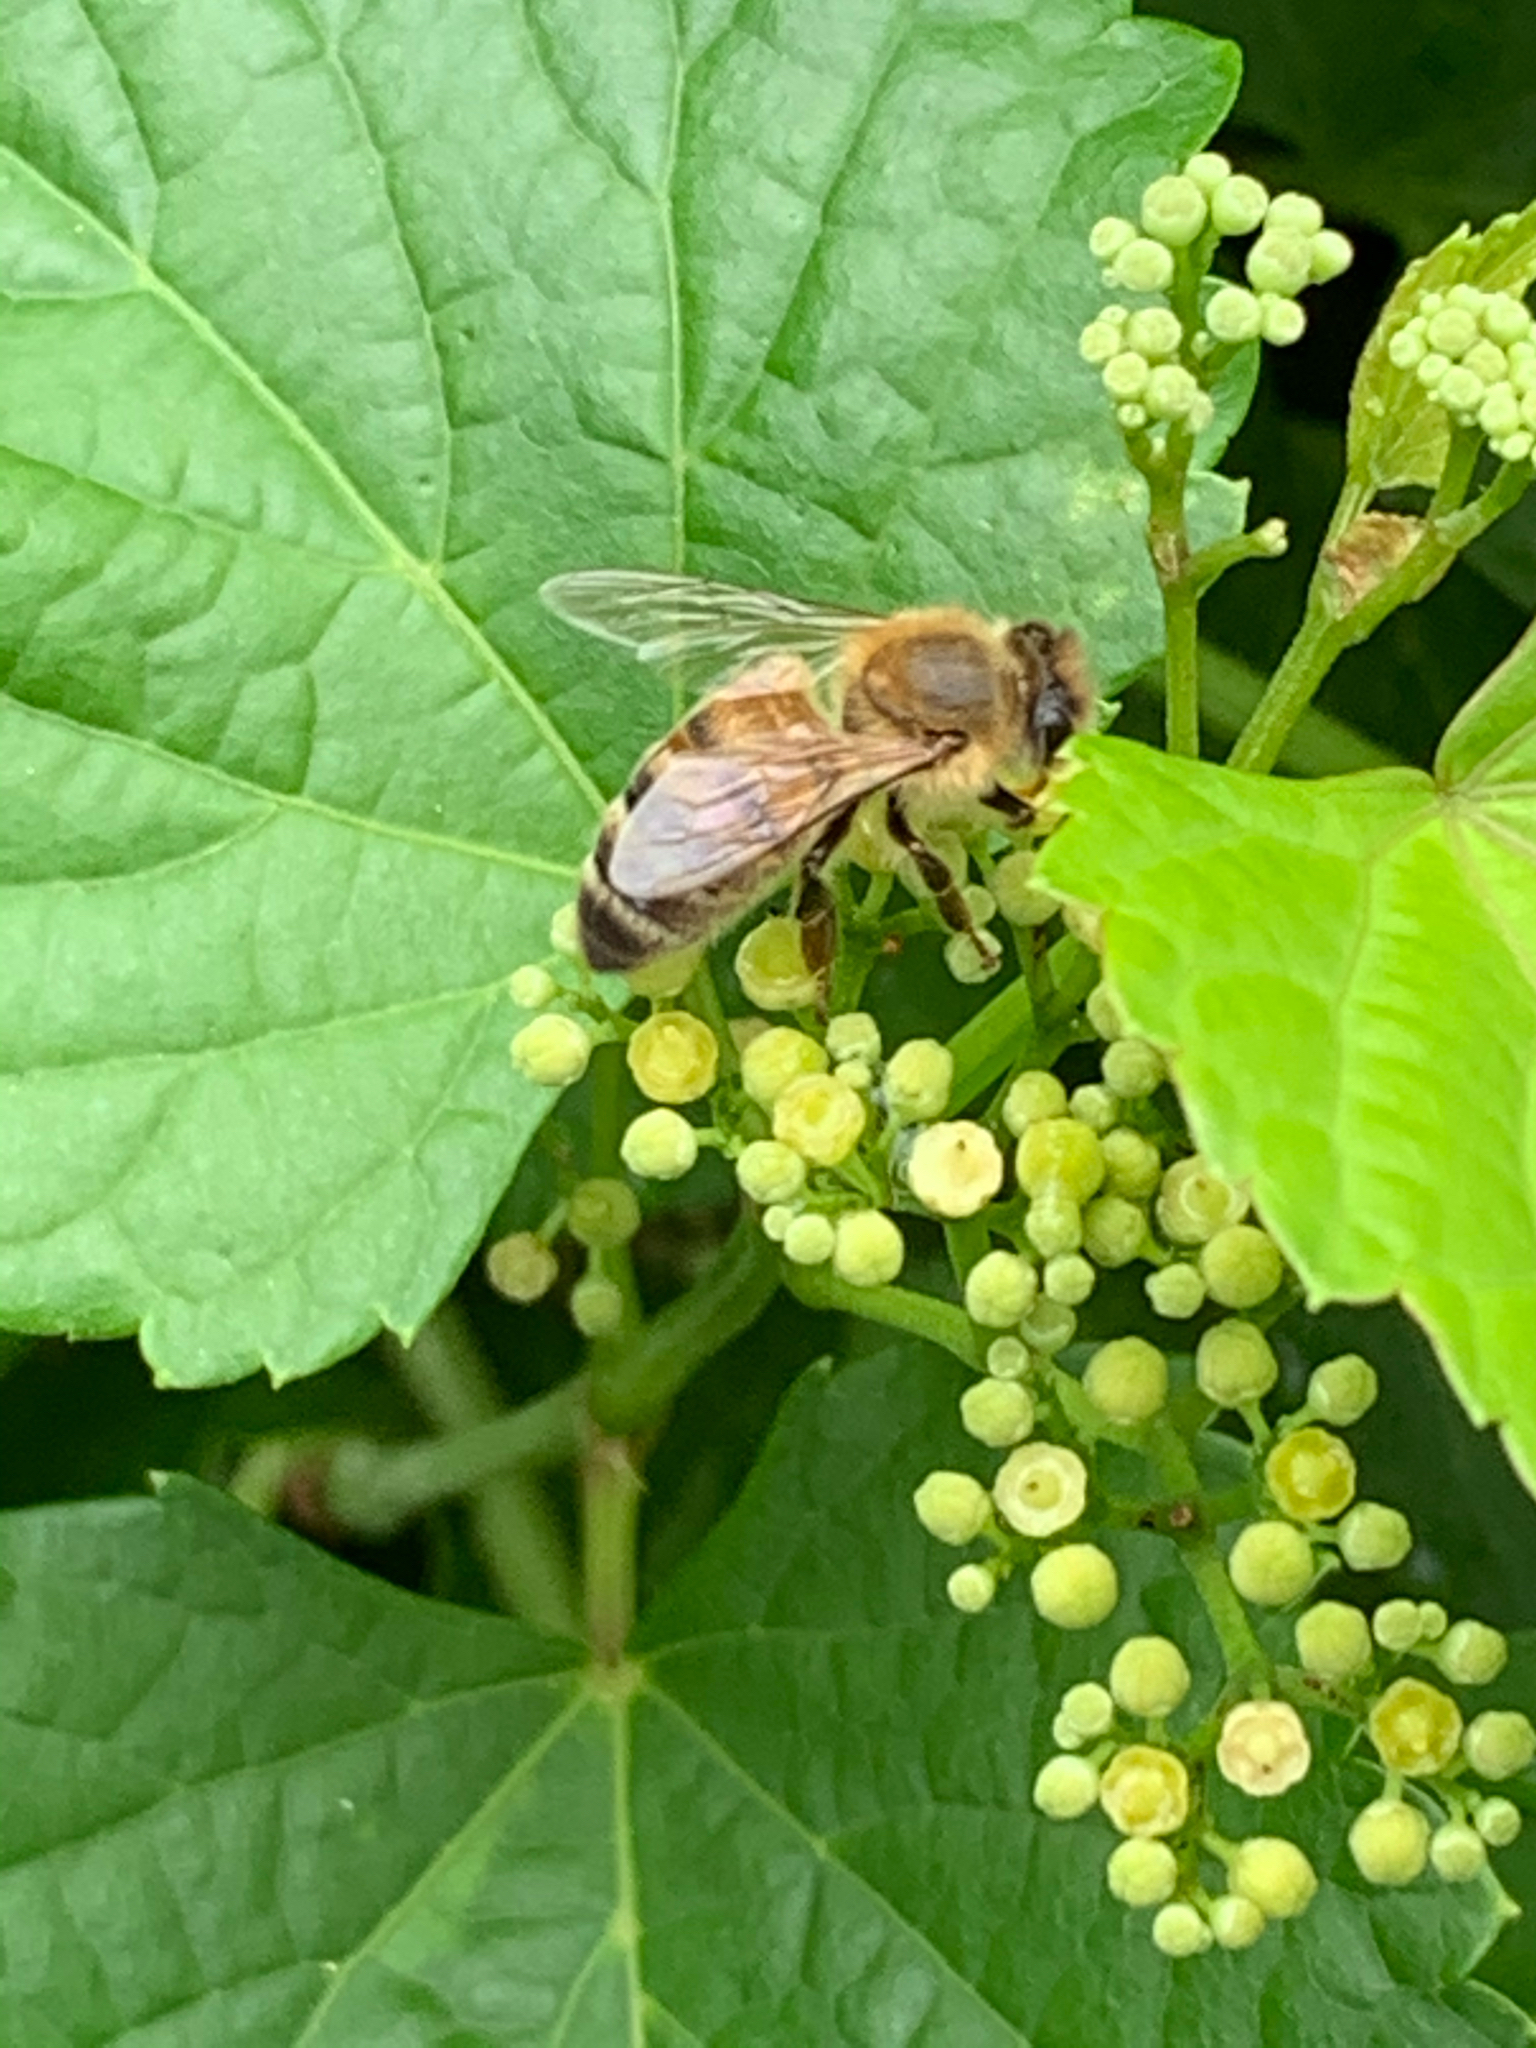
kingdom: Animalia
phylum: Arthropoda
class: Insecta
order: Hymenoptera
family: Apidae
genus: Apis
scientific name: Apis mellifera
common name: Honey bee
